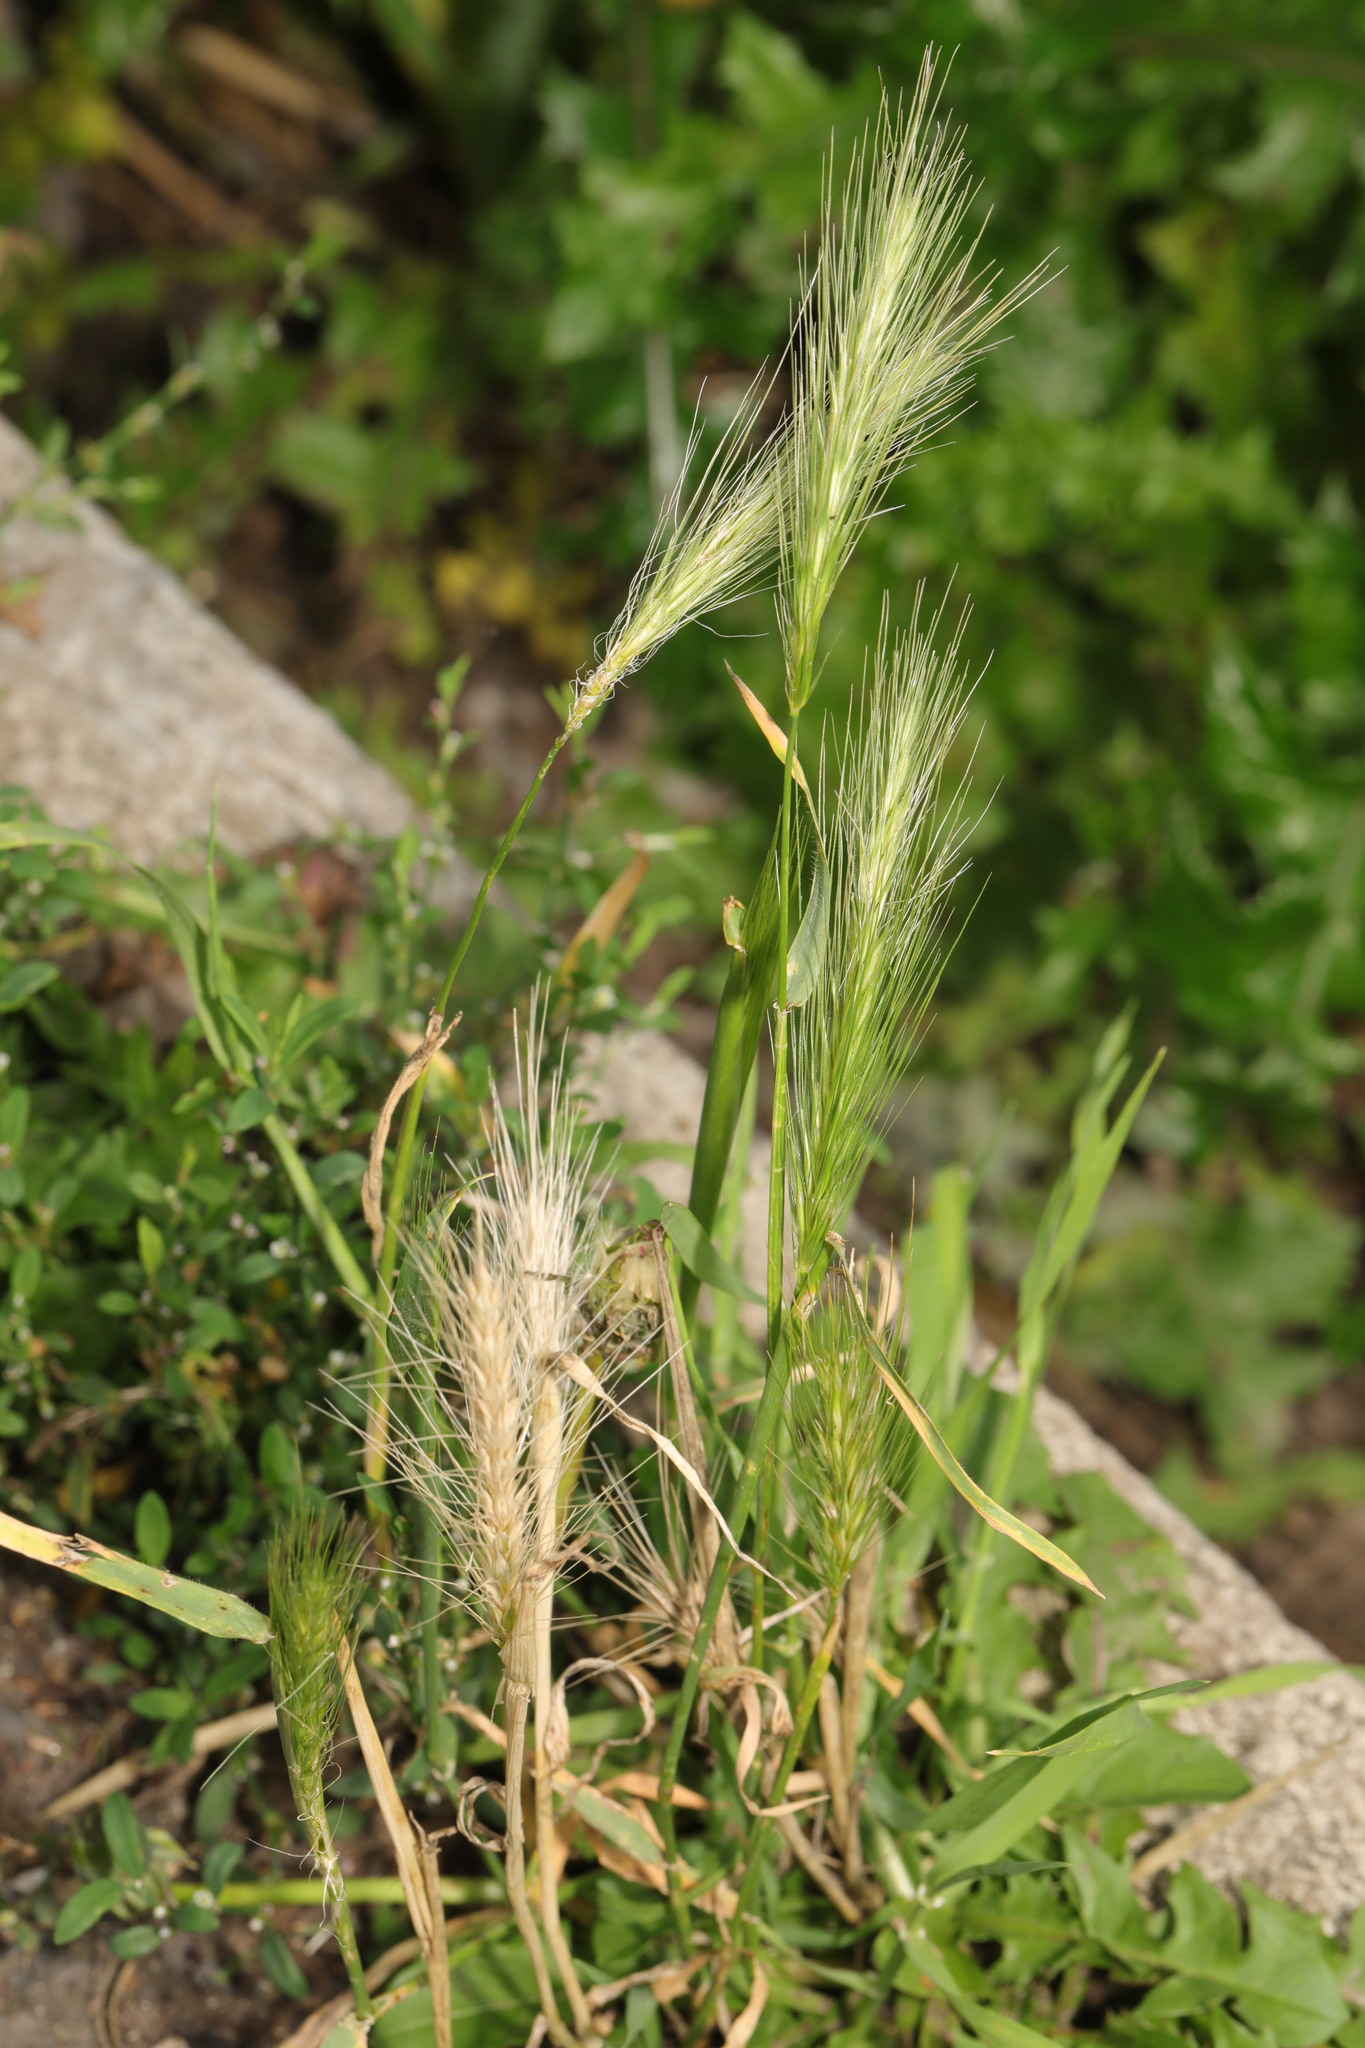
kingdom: Plantae
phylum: Tracheophyta
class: Liliopsida
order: Poales
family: Poaceae
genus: Hordeum
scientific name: Hordeum murinum
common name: Wall barley
